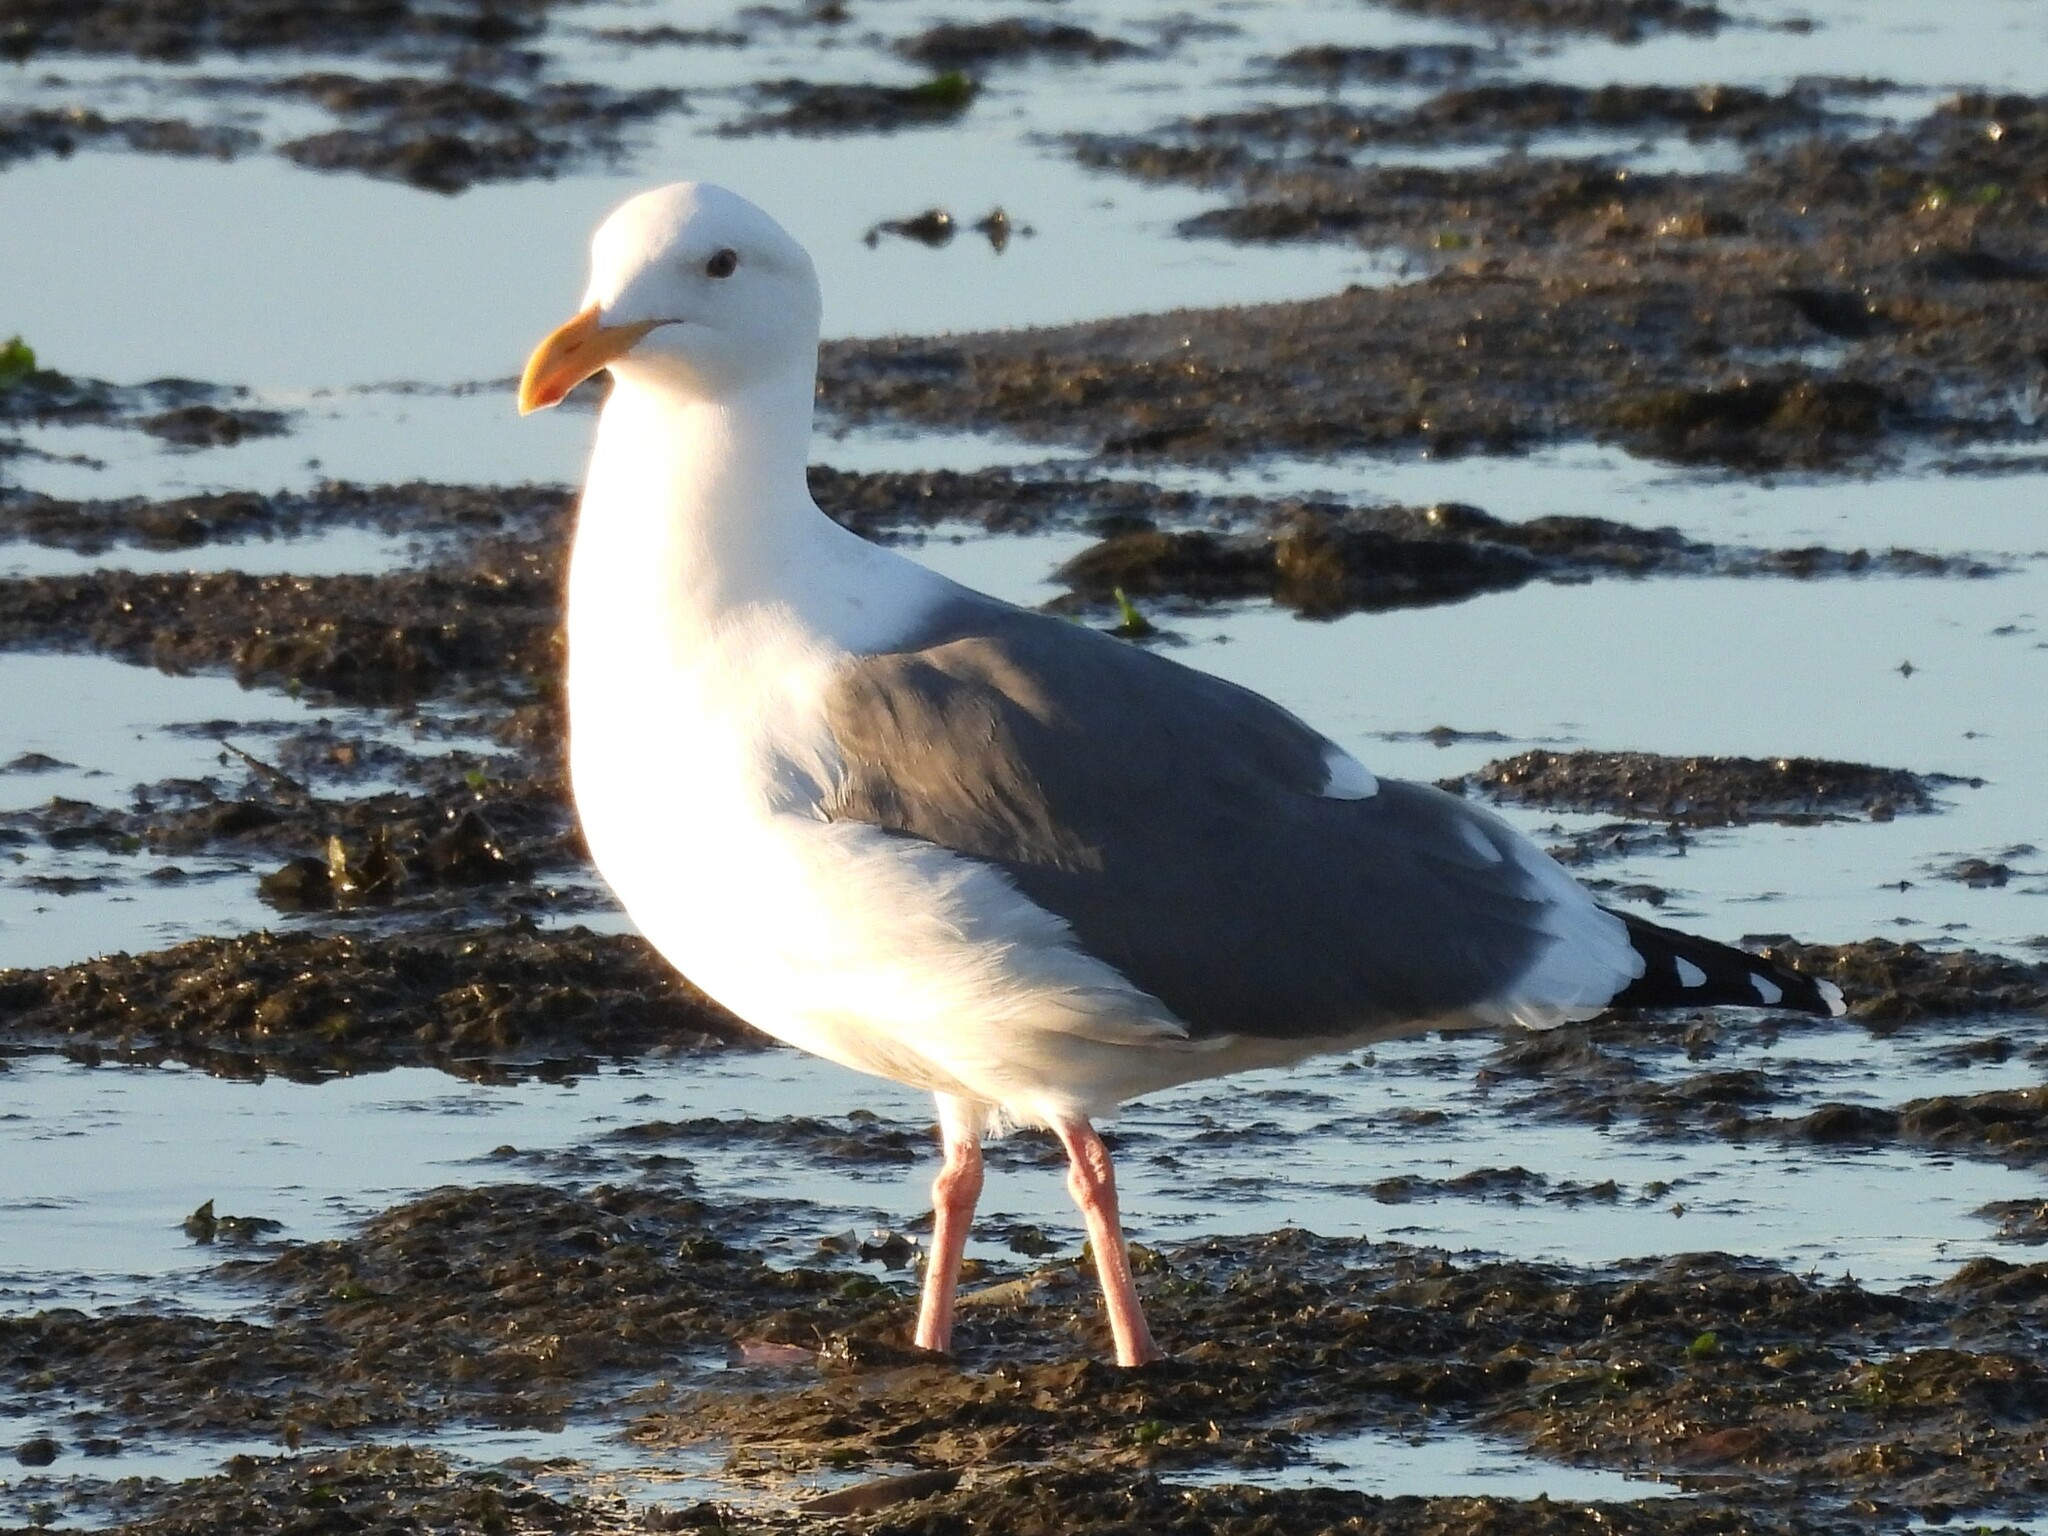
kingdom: Animalia
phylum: Chordata
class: Aves
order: Charadriiformes
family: Laridae
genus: Larus
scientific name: Larus occidentalis
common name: Western gull
